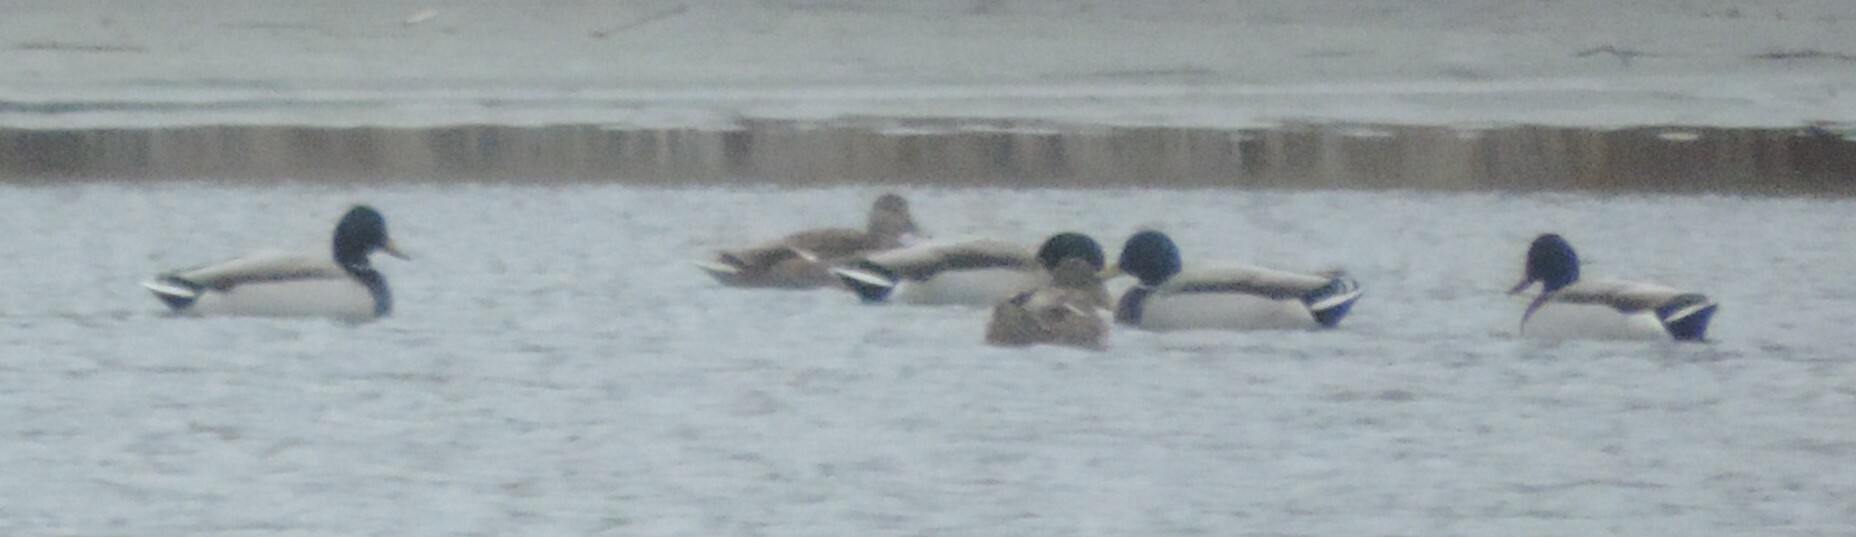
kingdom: Animalia
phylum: Chordata
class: Aves
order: Anseriformes
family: Anatidae
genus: Anas
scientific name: Anas platyrhynchos
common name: Mallard
